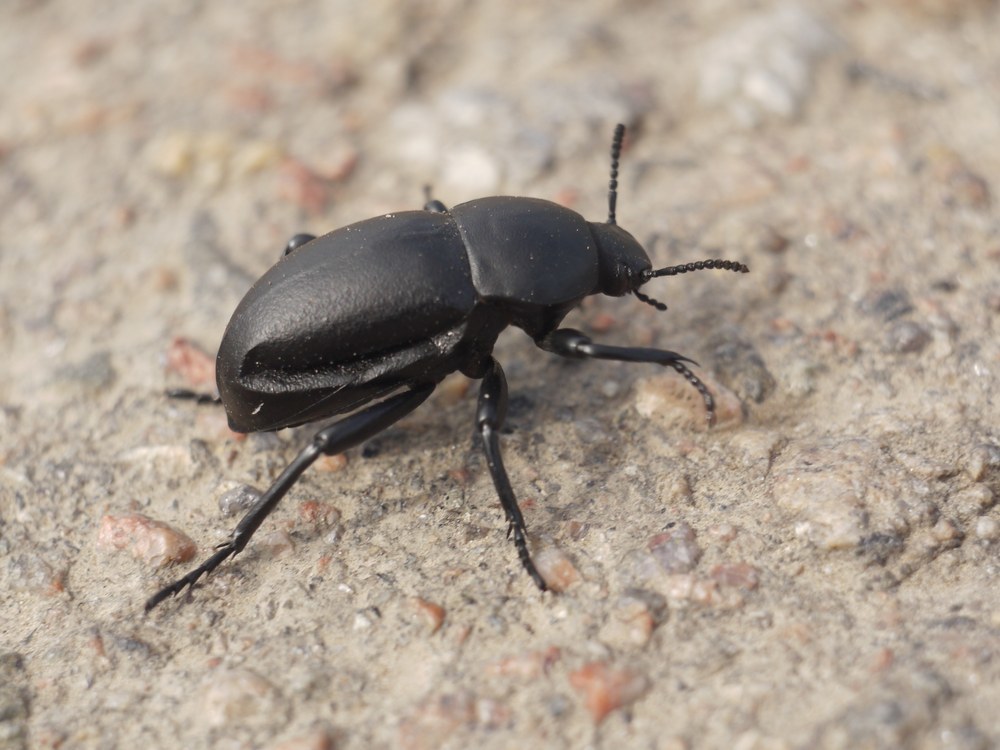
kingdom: Animalia
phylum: Arthropoda
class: Insecta
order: Coleoptera
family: Tenebrionidae
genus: Gnaptor
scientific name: Gnaptor spinimanus
